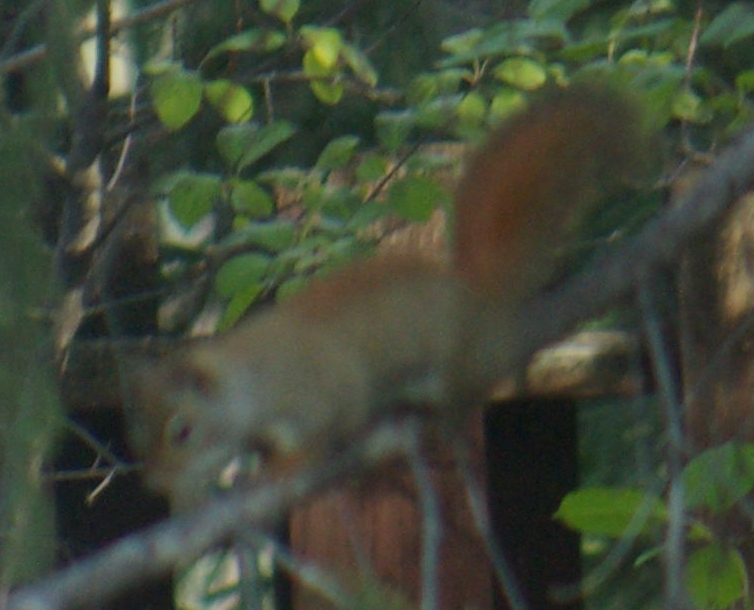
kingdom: Animalia
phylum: Chordata
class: Mammalia
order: Rodentia
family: Sciuridae
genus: Tamiasciurus
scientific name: Tamiasciurus hudsonicus
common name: Red squirrel
